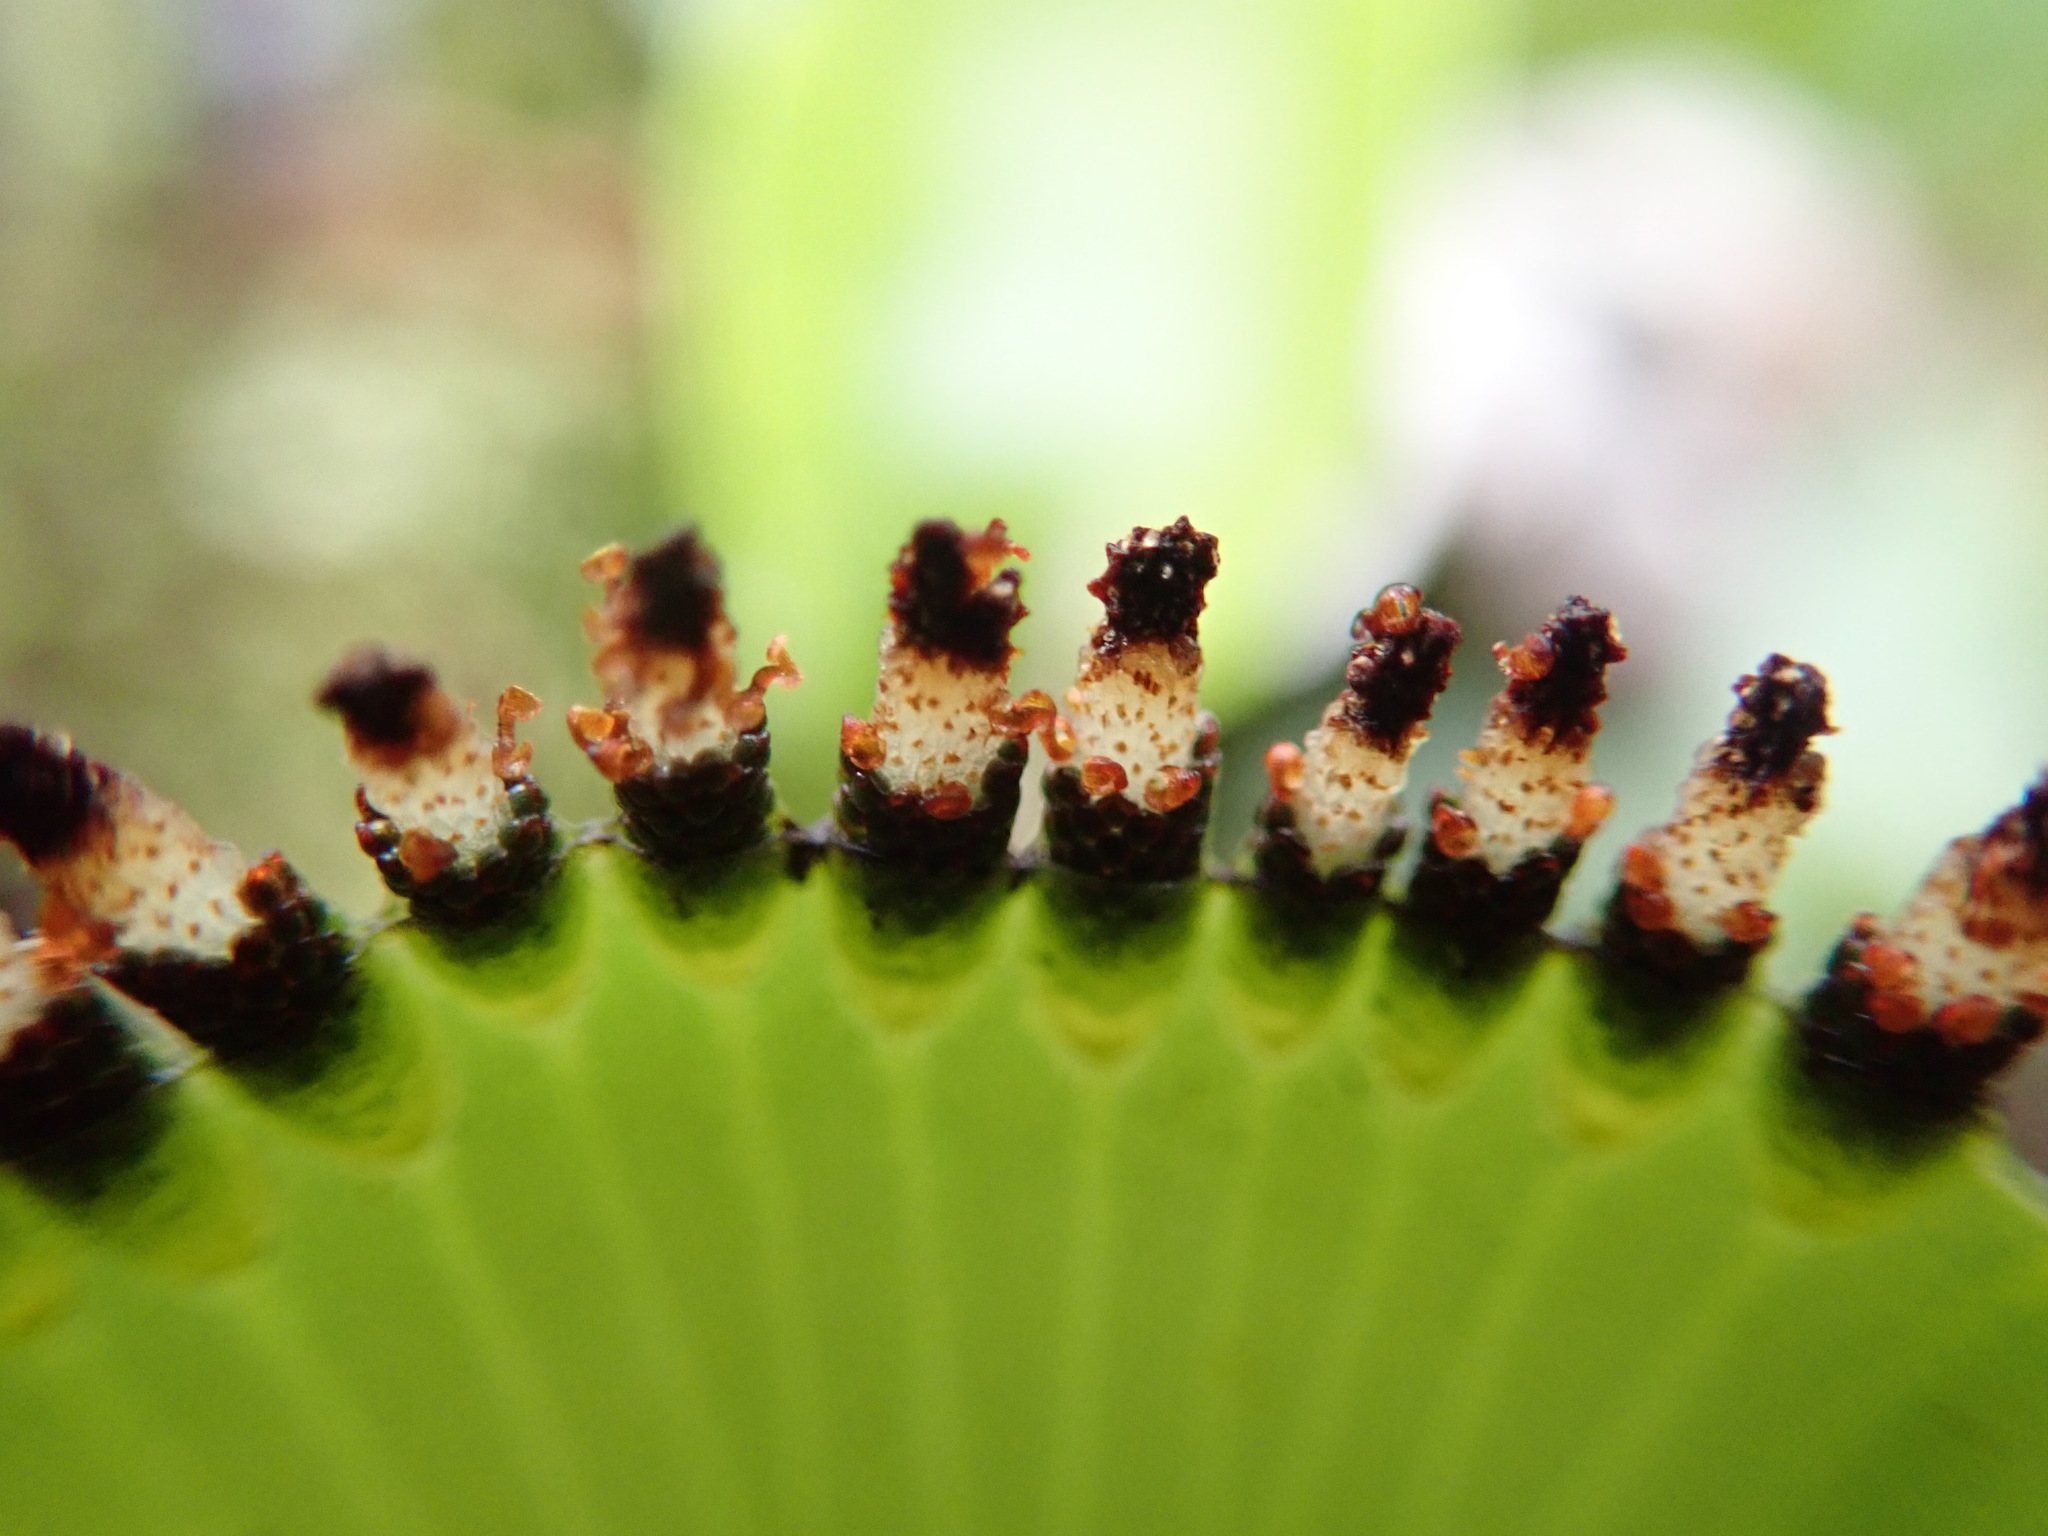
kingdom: Plantae
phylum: Tracheophyta
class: Polypodiopsida
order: Hymenophyllales
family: Hymenophyllaceae
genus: Hymenophyllum
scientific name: Hymenophyllum nephrophyllum
